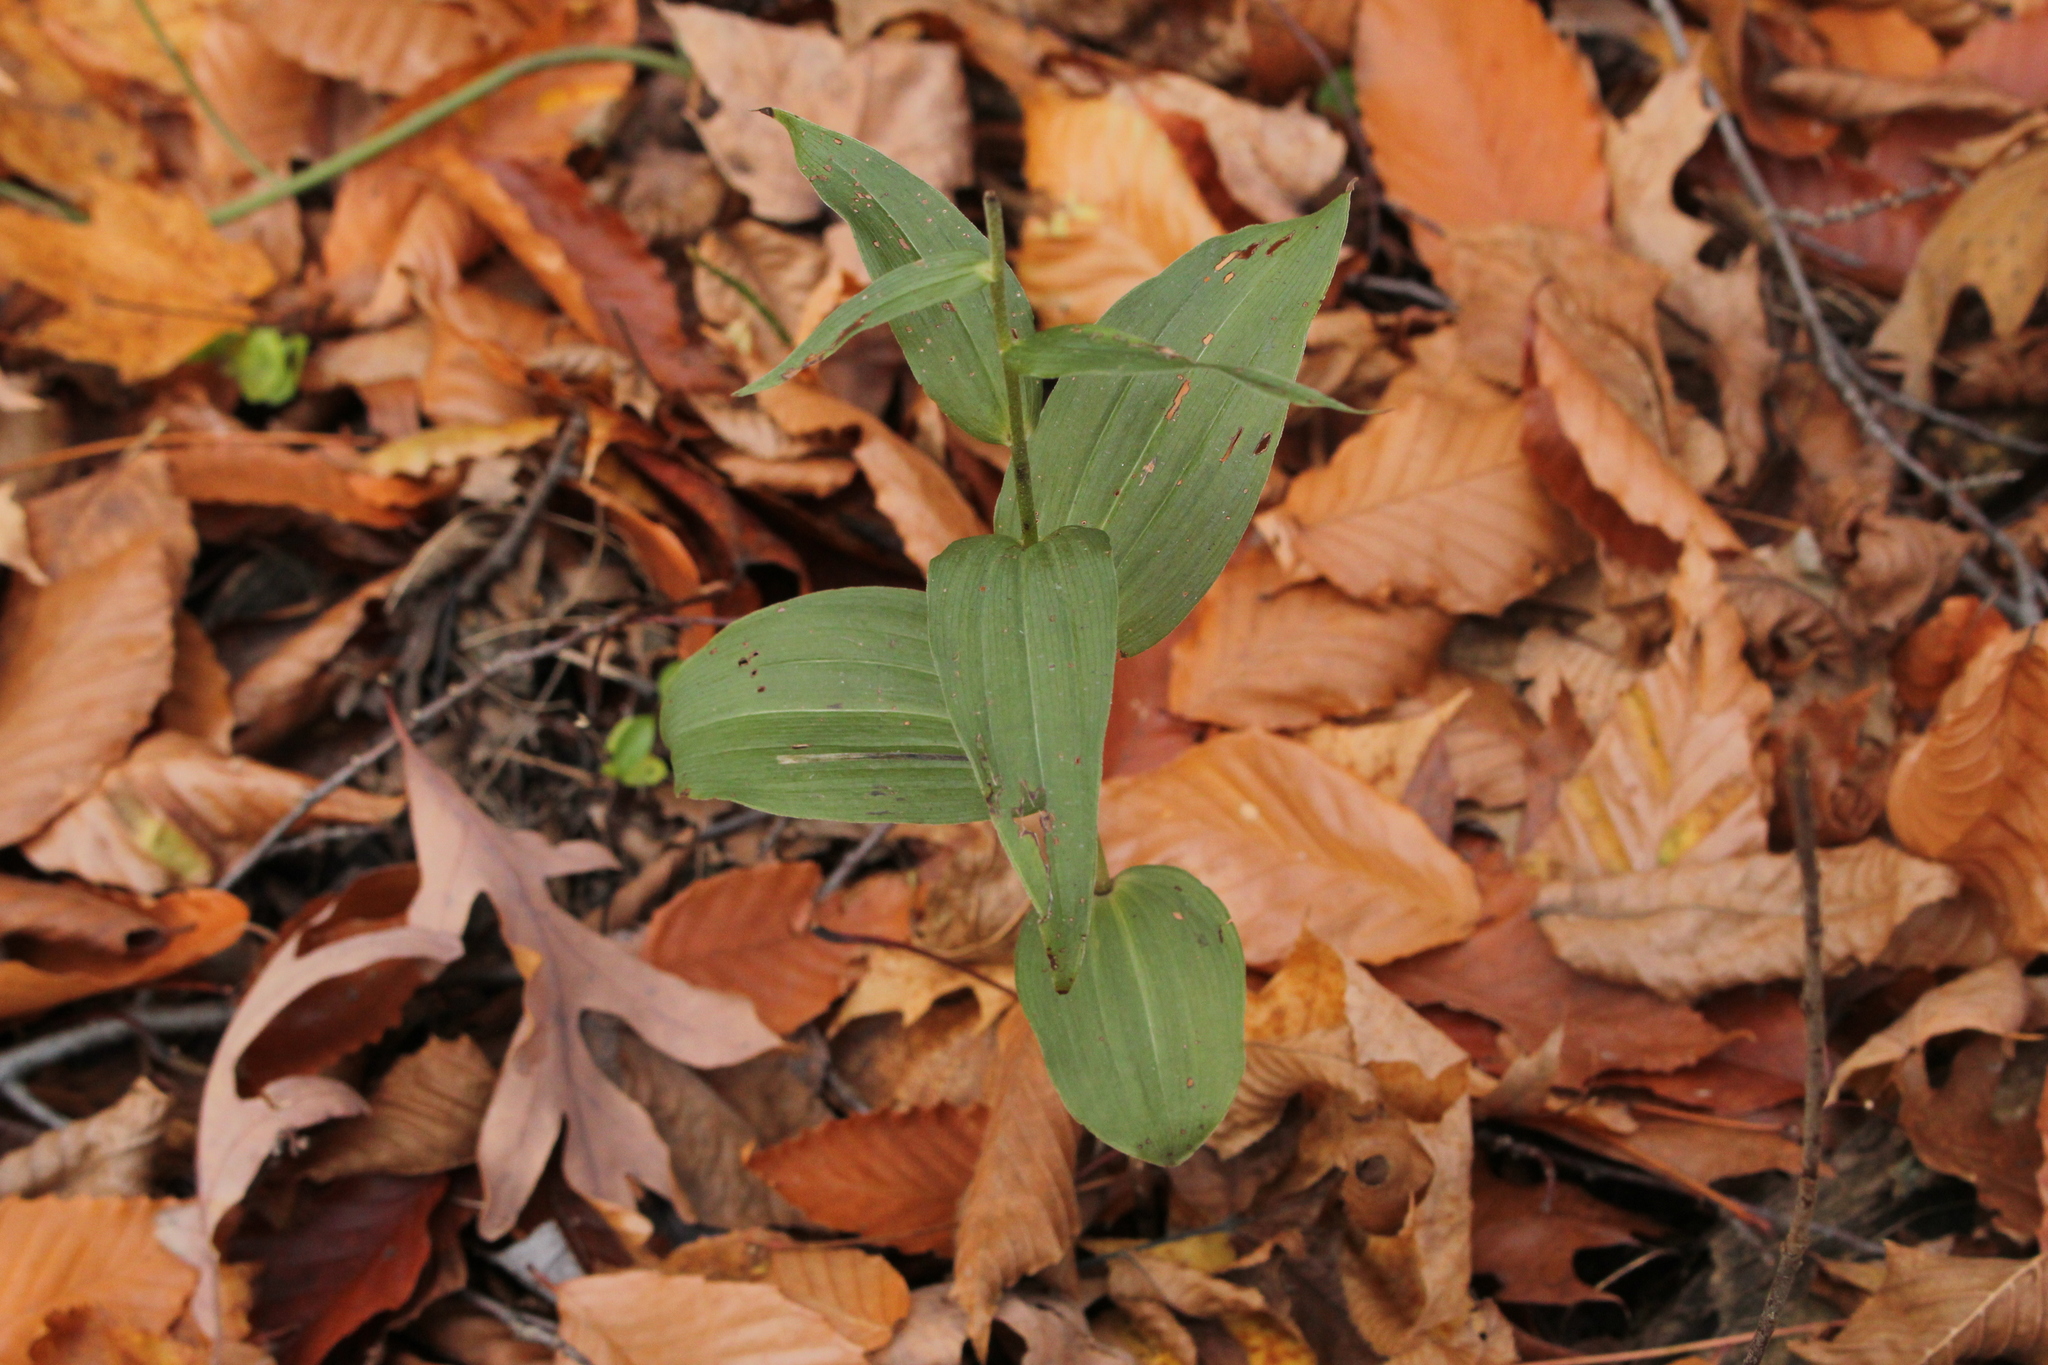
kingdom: Plantae
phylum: Tracheophyta
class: Liliopsida
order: Asparagales
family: Orchidaceae
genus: Epipactis
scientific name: Epipactis helleborine
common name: Broad-leaved helleborine
